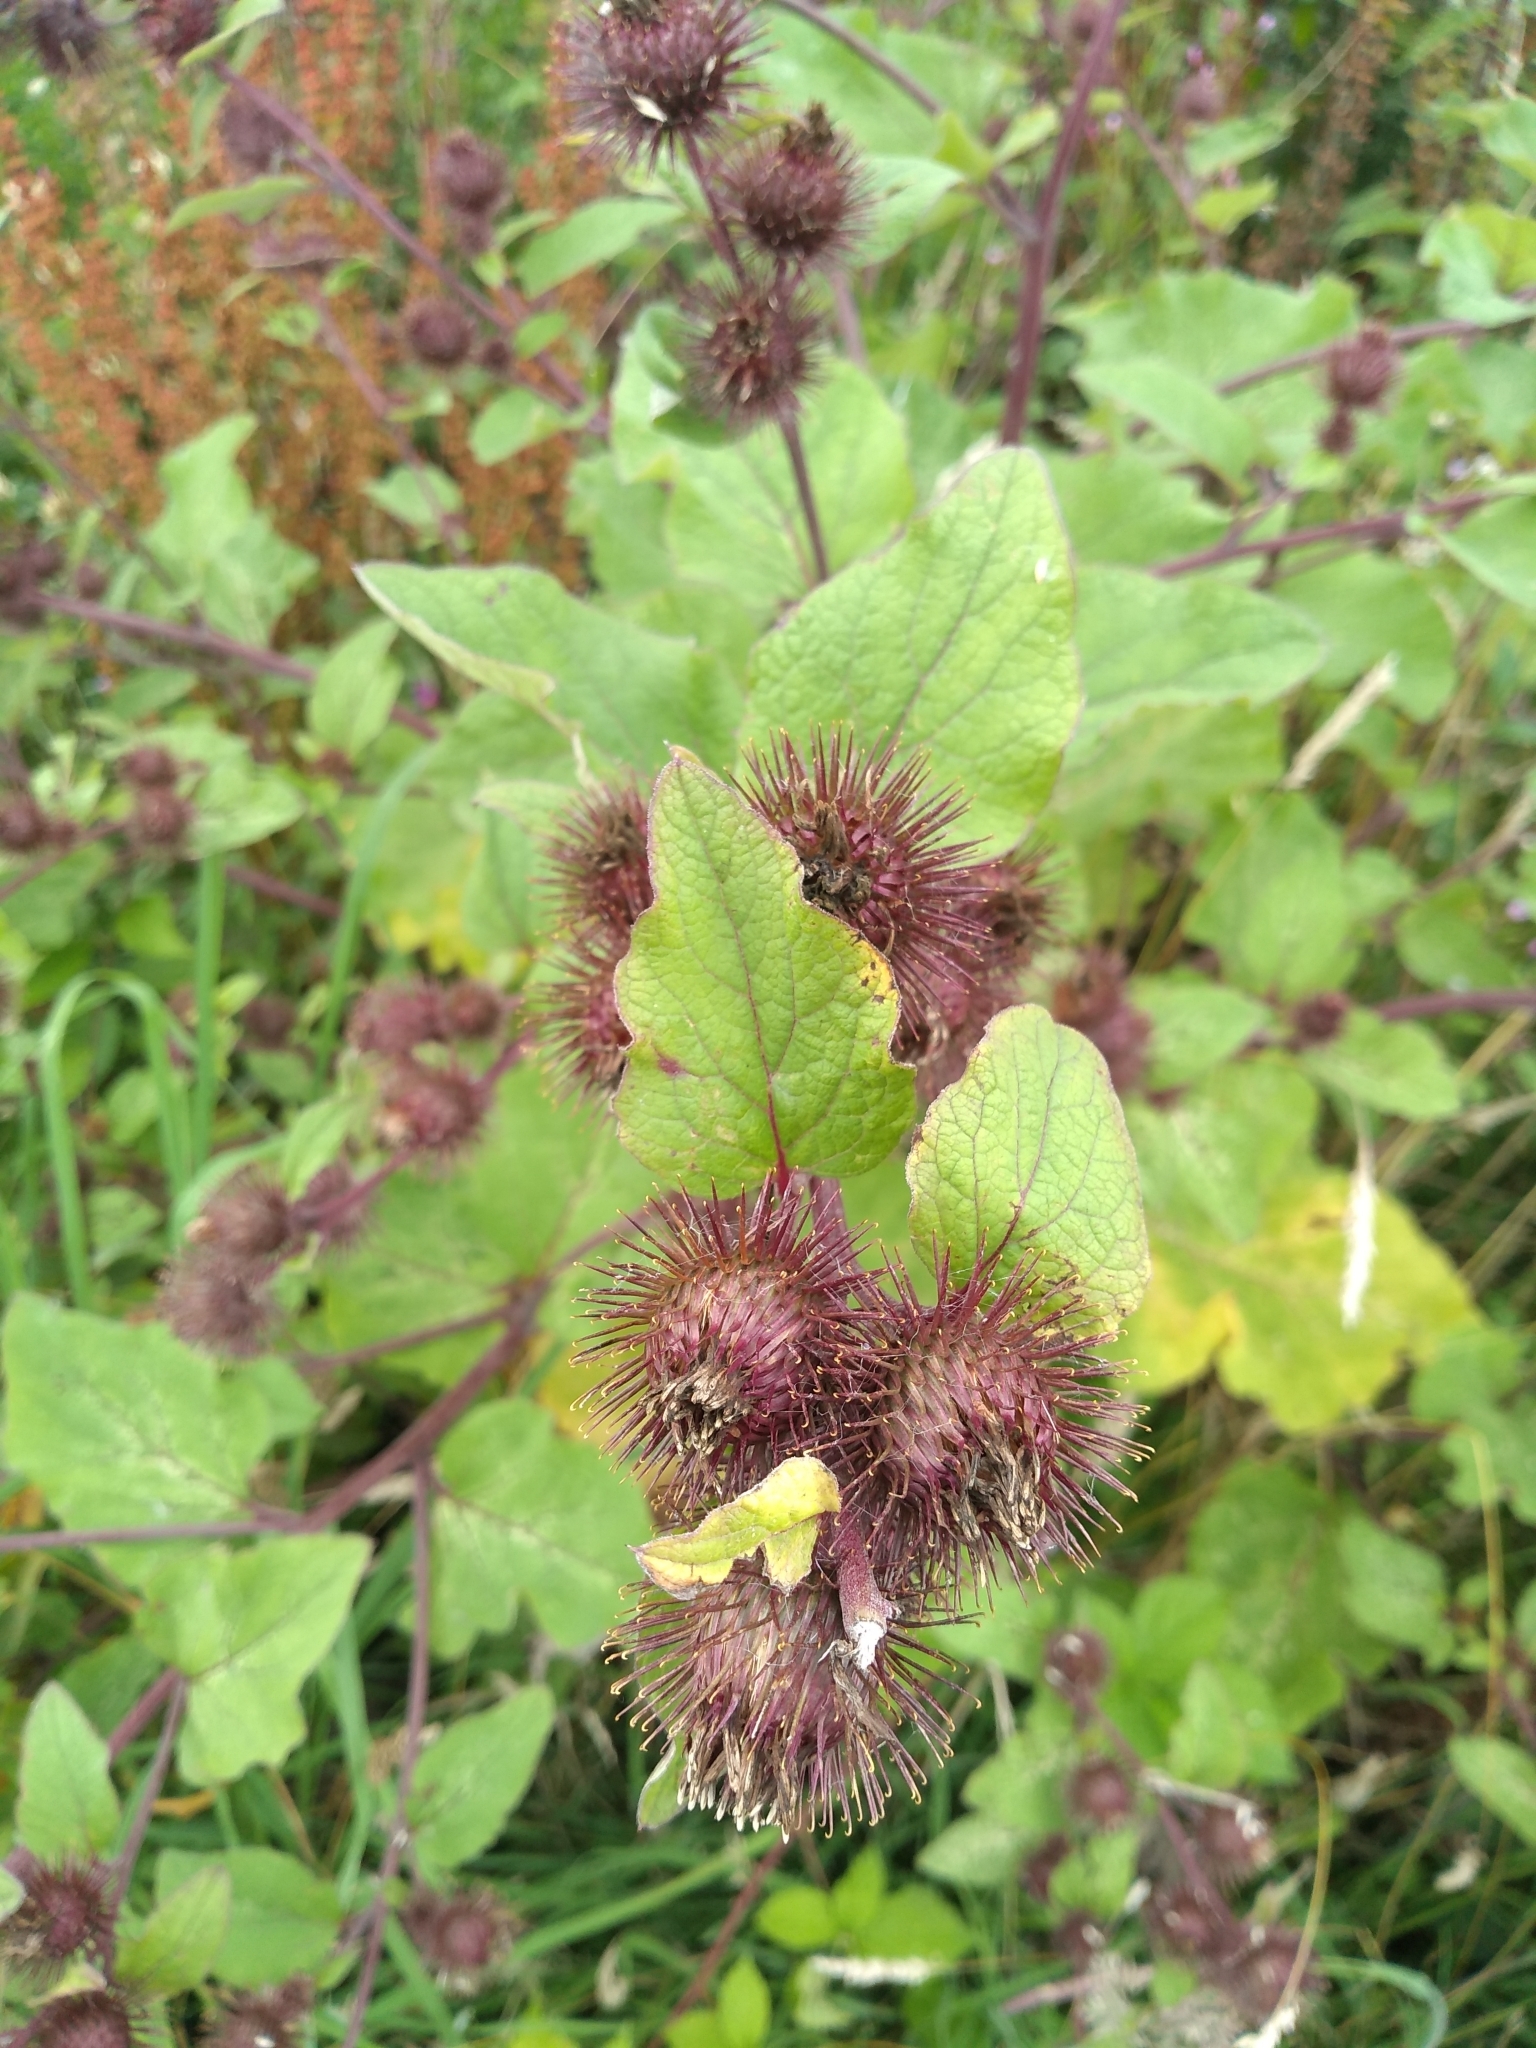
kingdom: Plantae
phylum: Tracheophyta
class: Magnoliopsida
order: Asterales
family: Asteraceae
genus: Arctium
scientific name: Arctium minus
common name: Lesser burdock
